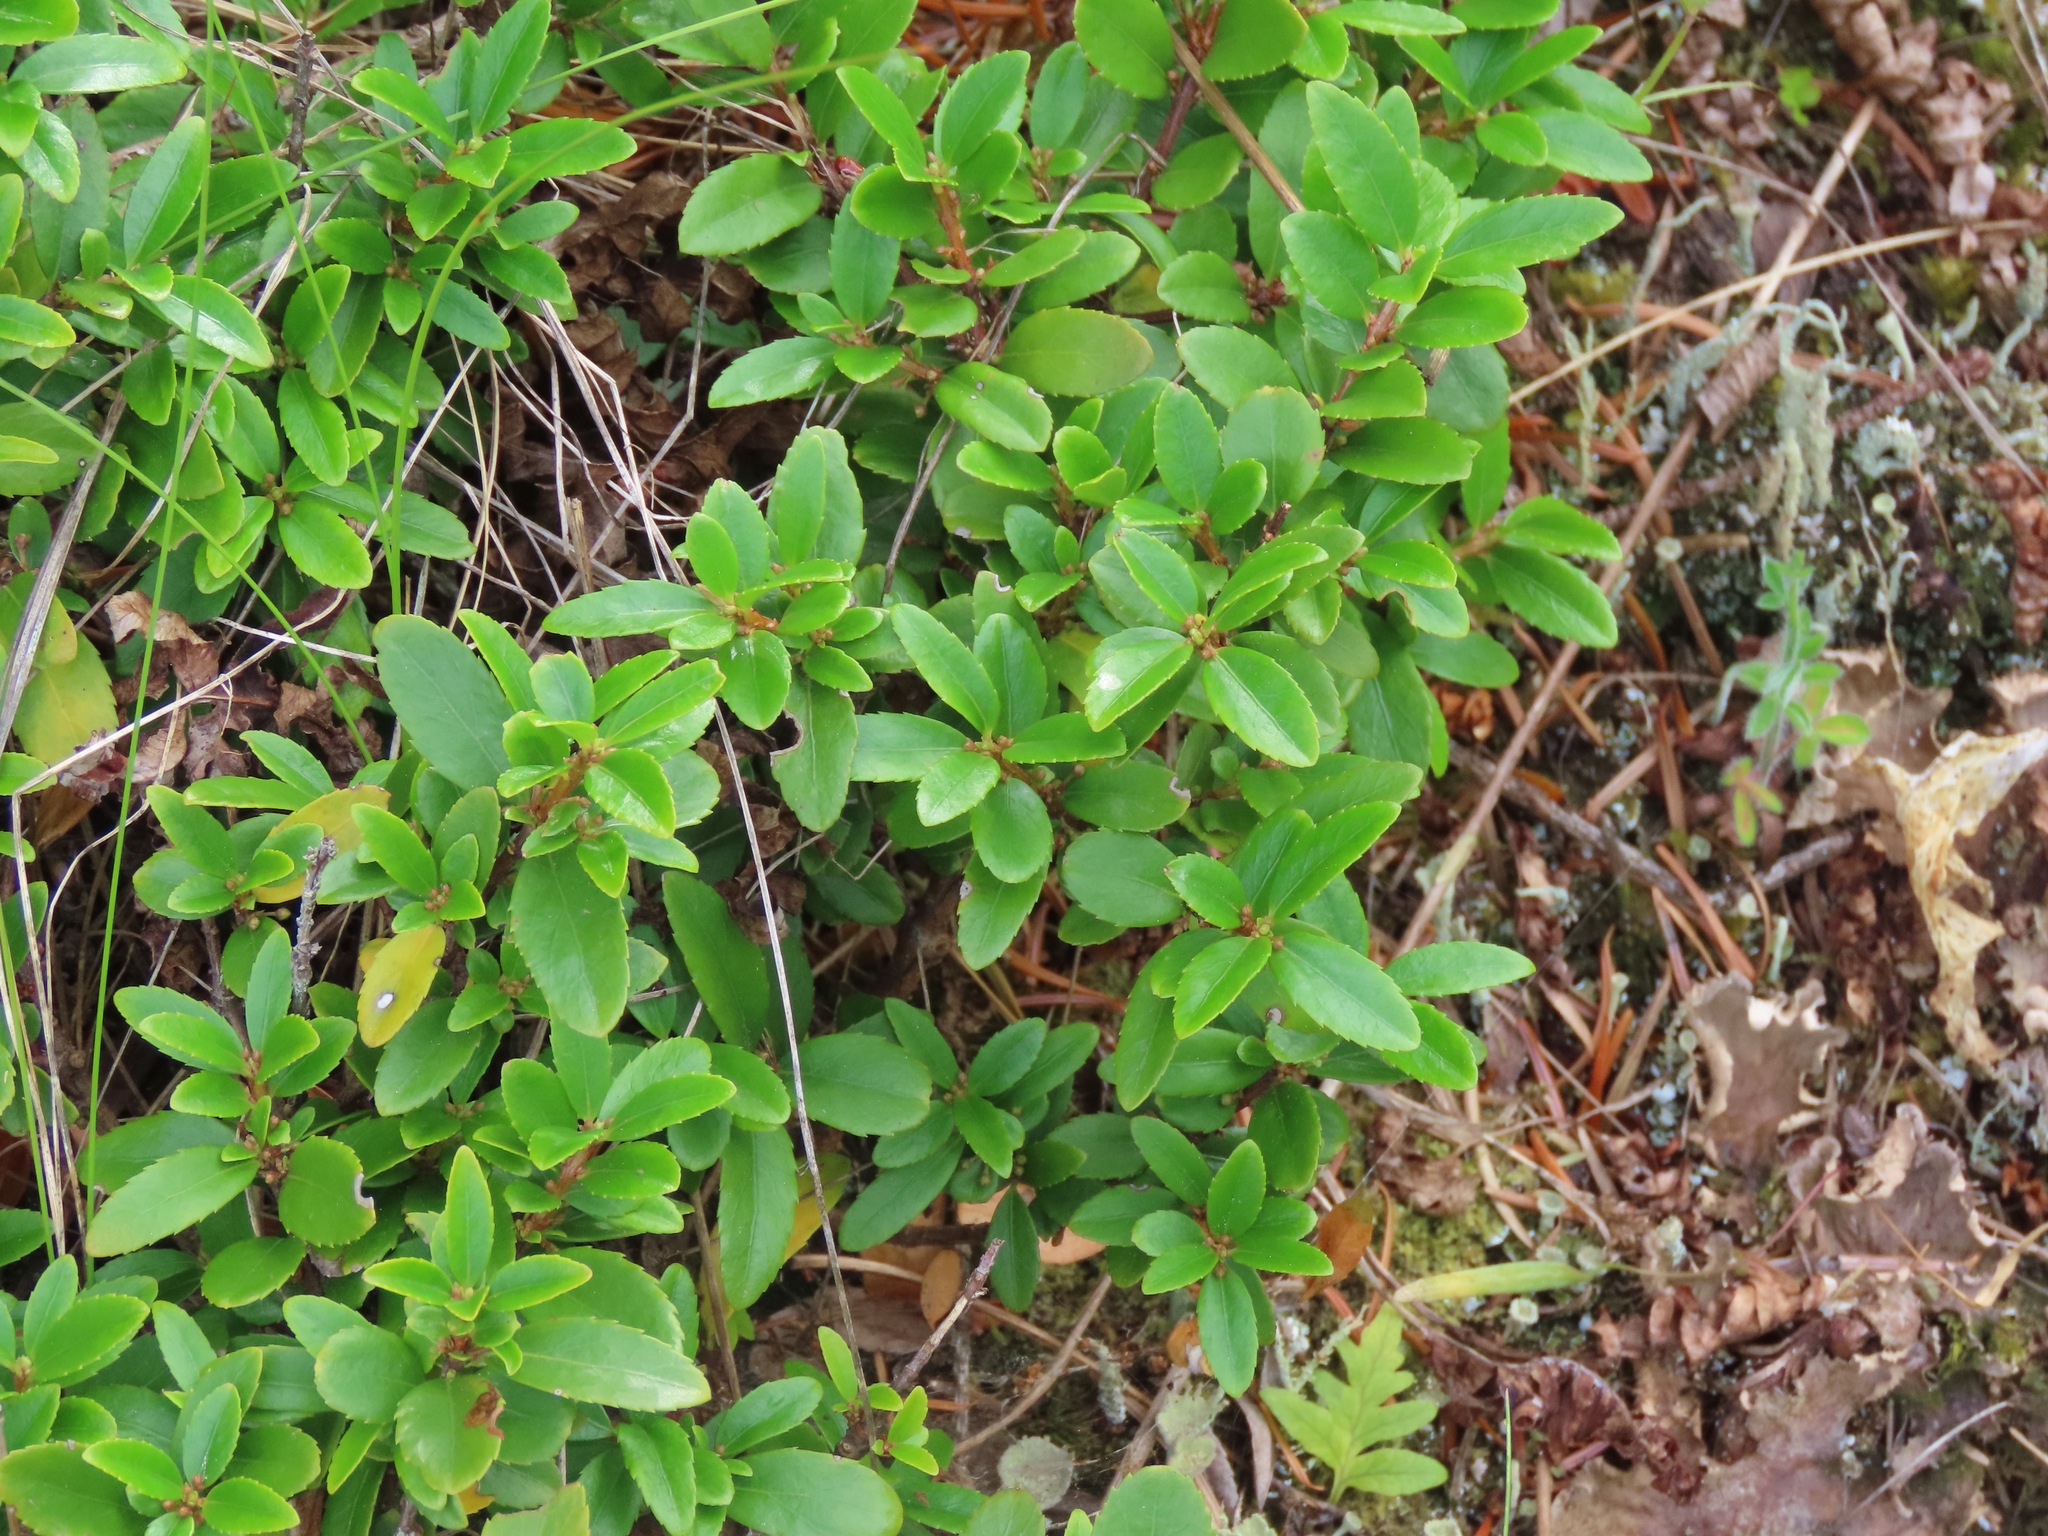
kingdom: Plantae
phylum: Tracheophyta
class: Magnoliopsida
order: Celastrales
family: Celastraceae
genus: Paxistima
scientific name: Paxistima myrsinites
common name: Mountain-lover
